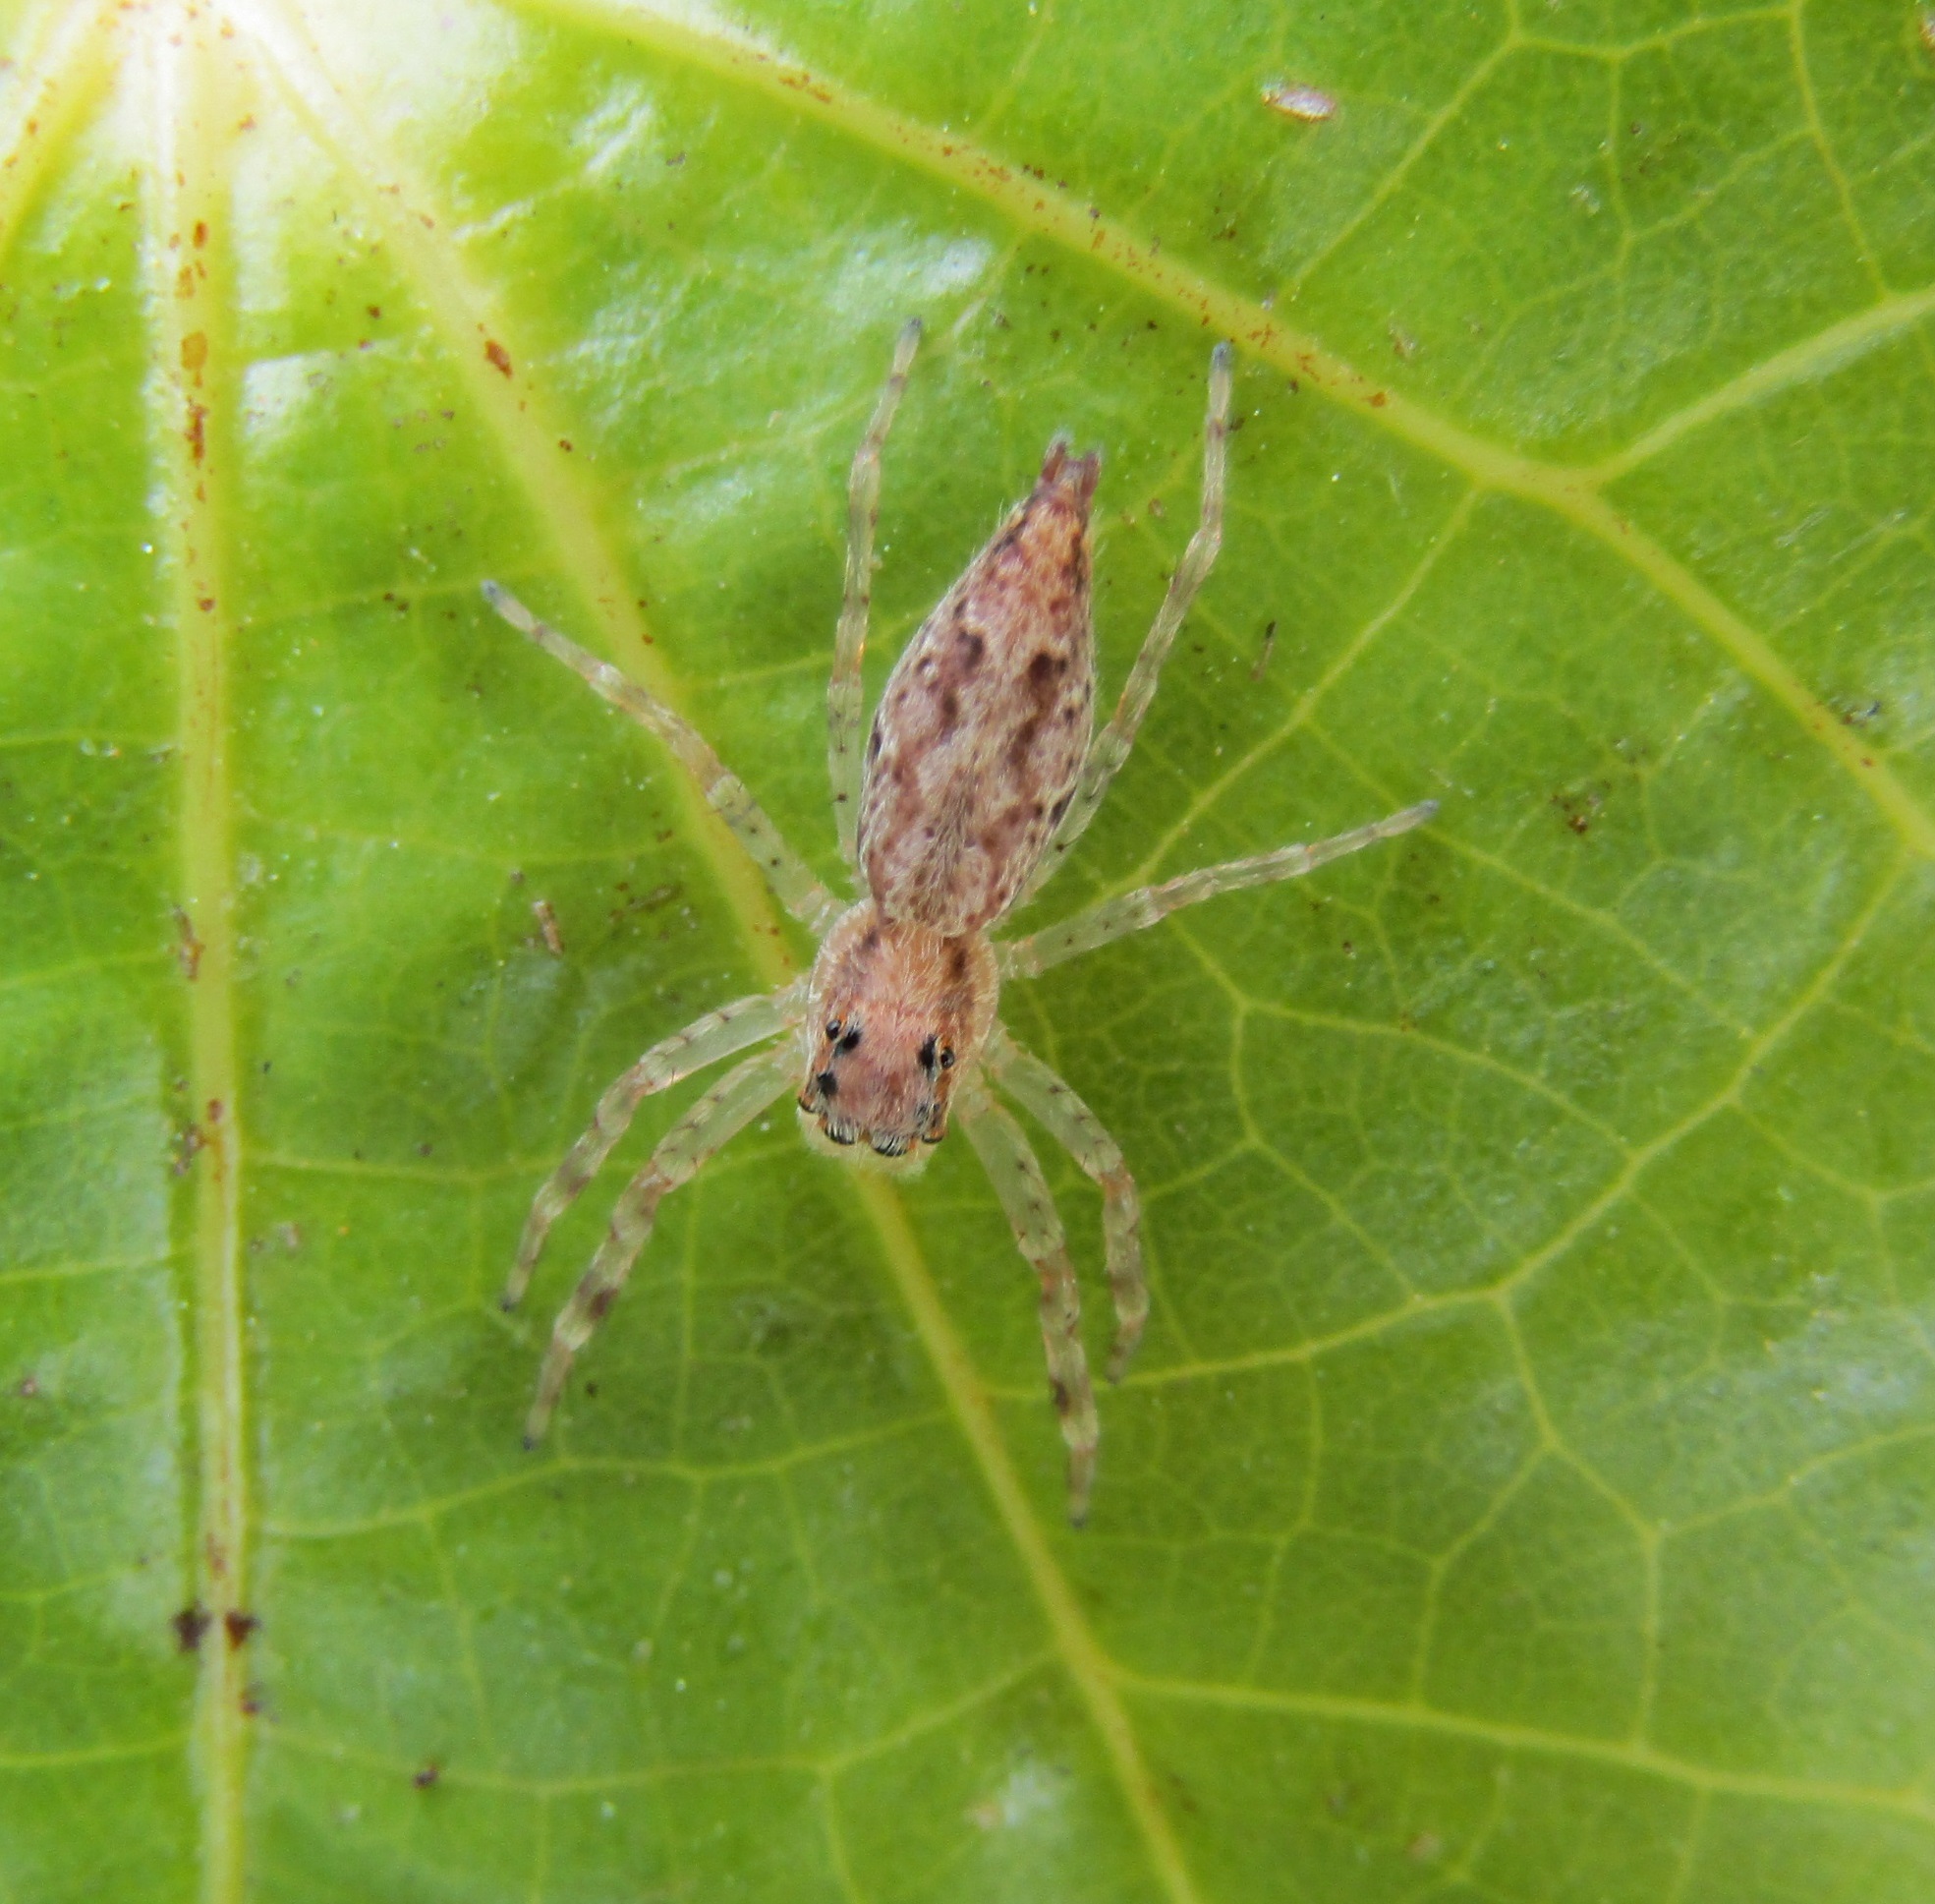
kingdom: Animalia
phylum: Arthropoda
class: Arachnida
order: Araneae
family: Salticidae
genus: Helpis
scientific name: Helpis minitabunda
